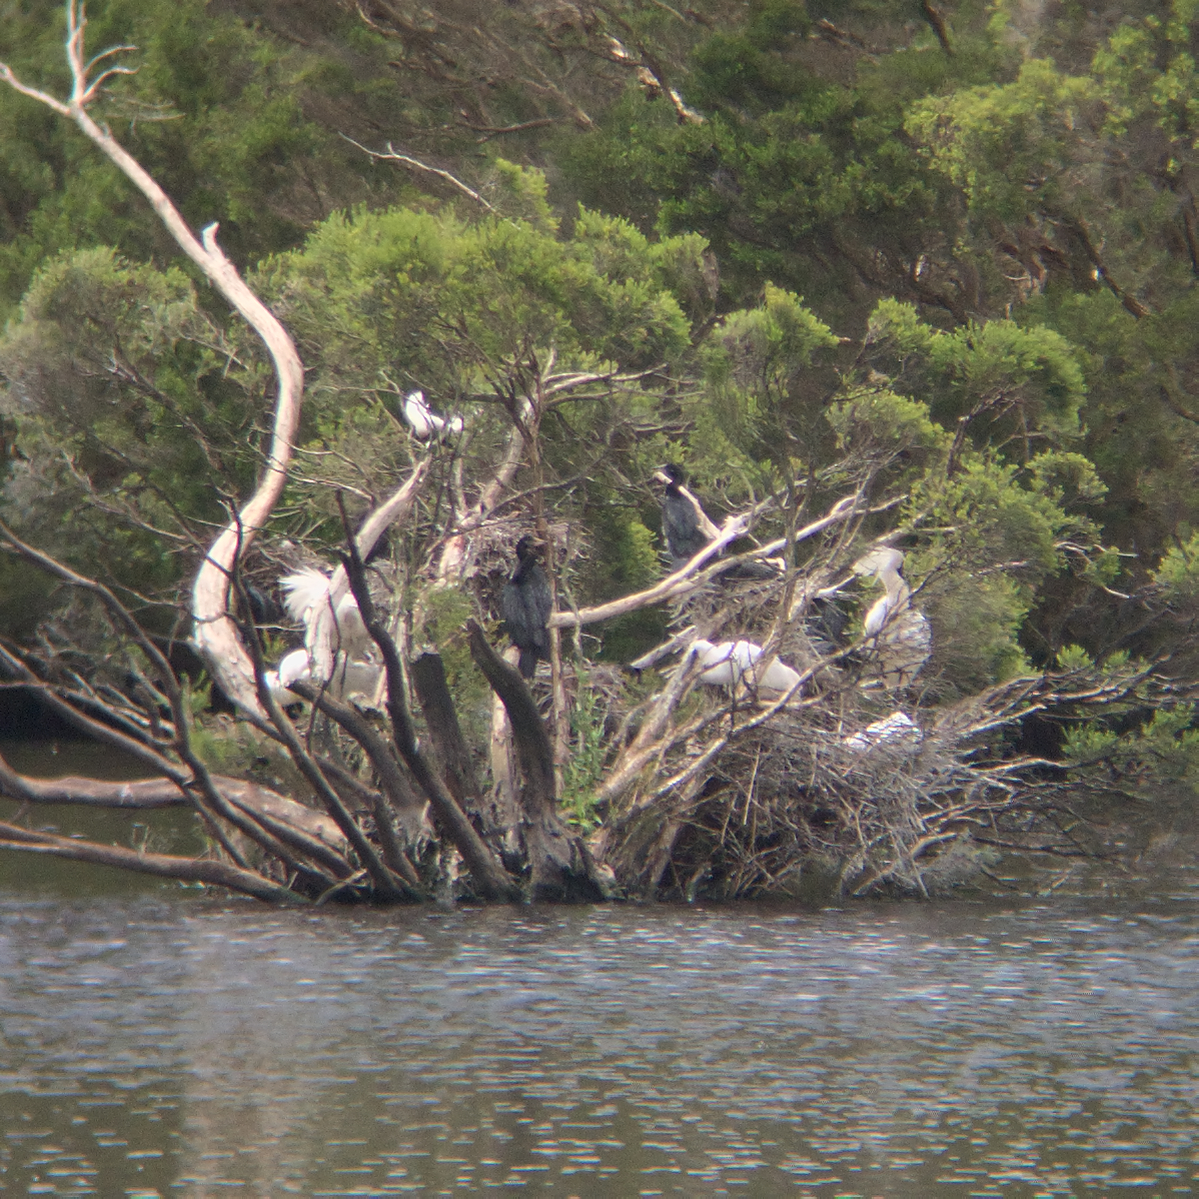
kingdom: Animalia
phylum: Chordata
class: Aves
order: Pelecaniformes
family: Threskiornithidae
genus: Platalea
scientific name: Platalea regia
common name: Royal spoonbill
